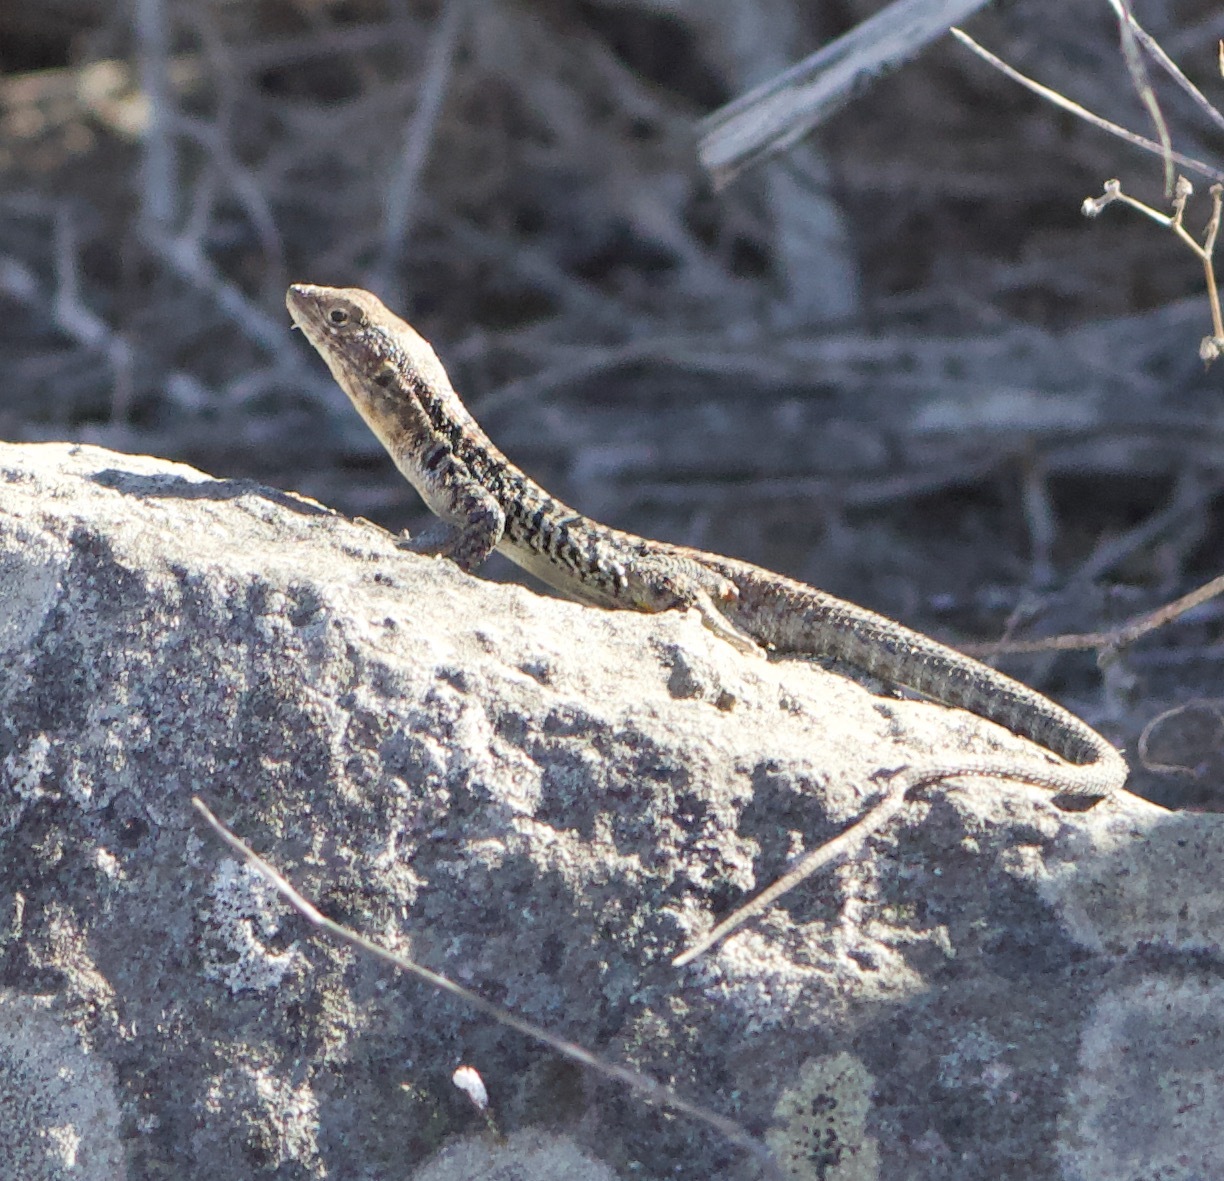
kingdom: Animalia
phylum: Chordata
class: Squamata
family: Liolaemidae
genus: Liolaemus
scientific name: Liolaemus platei
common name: Braided tree iguana
